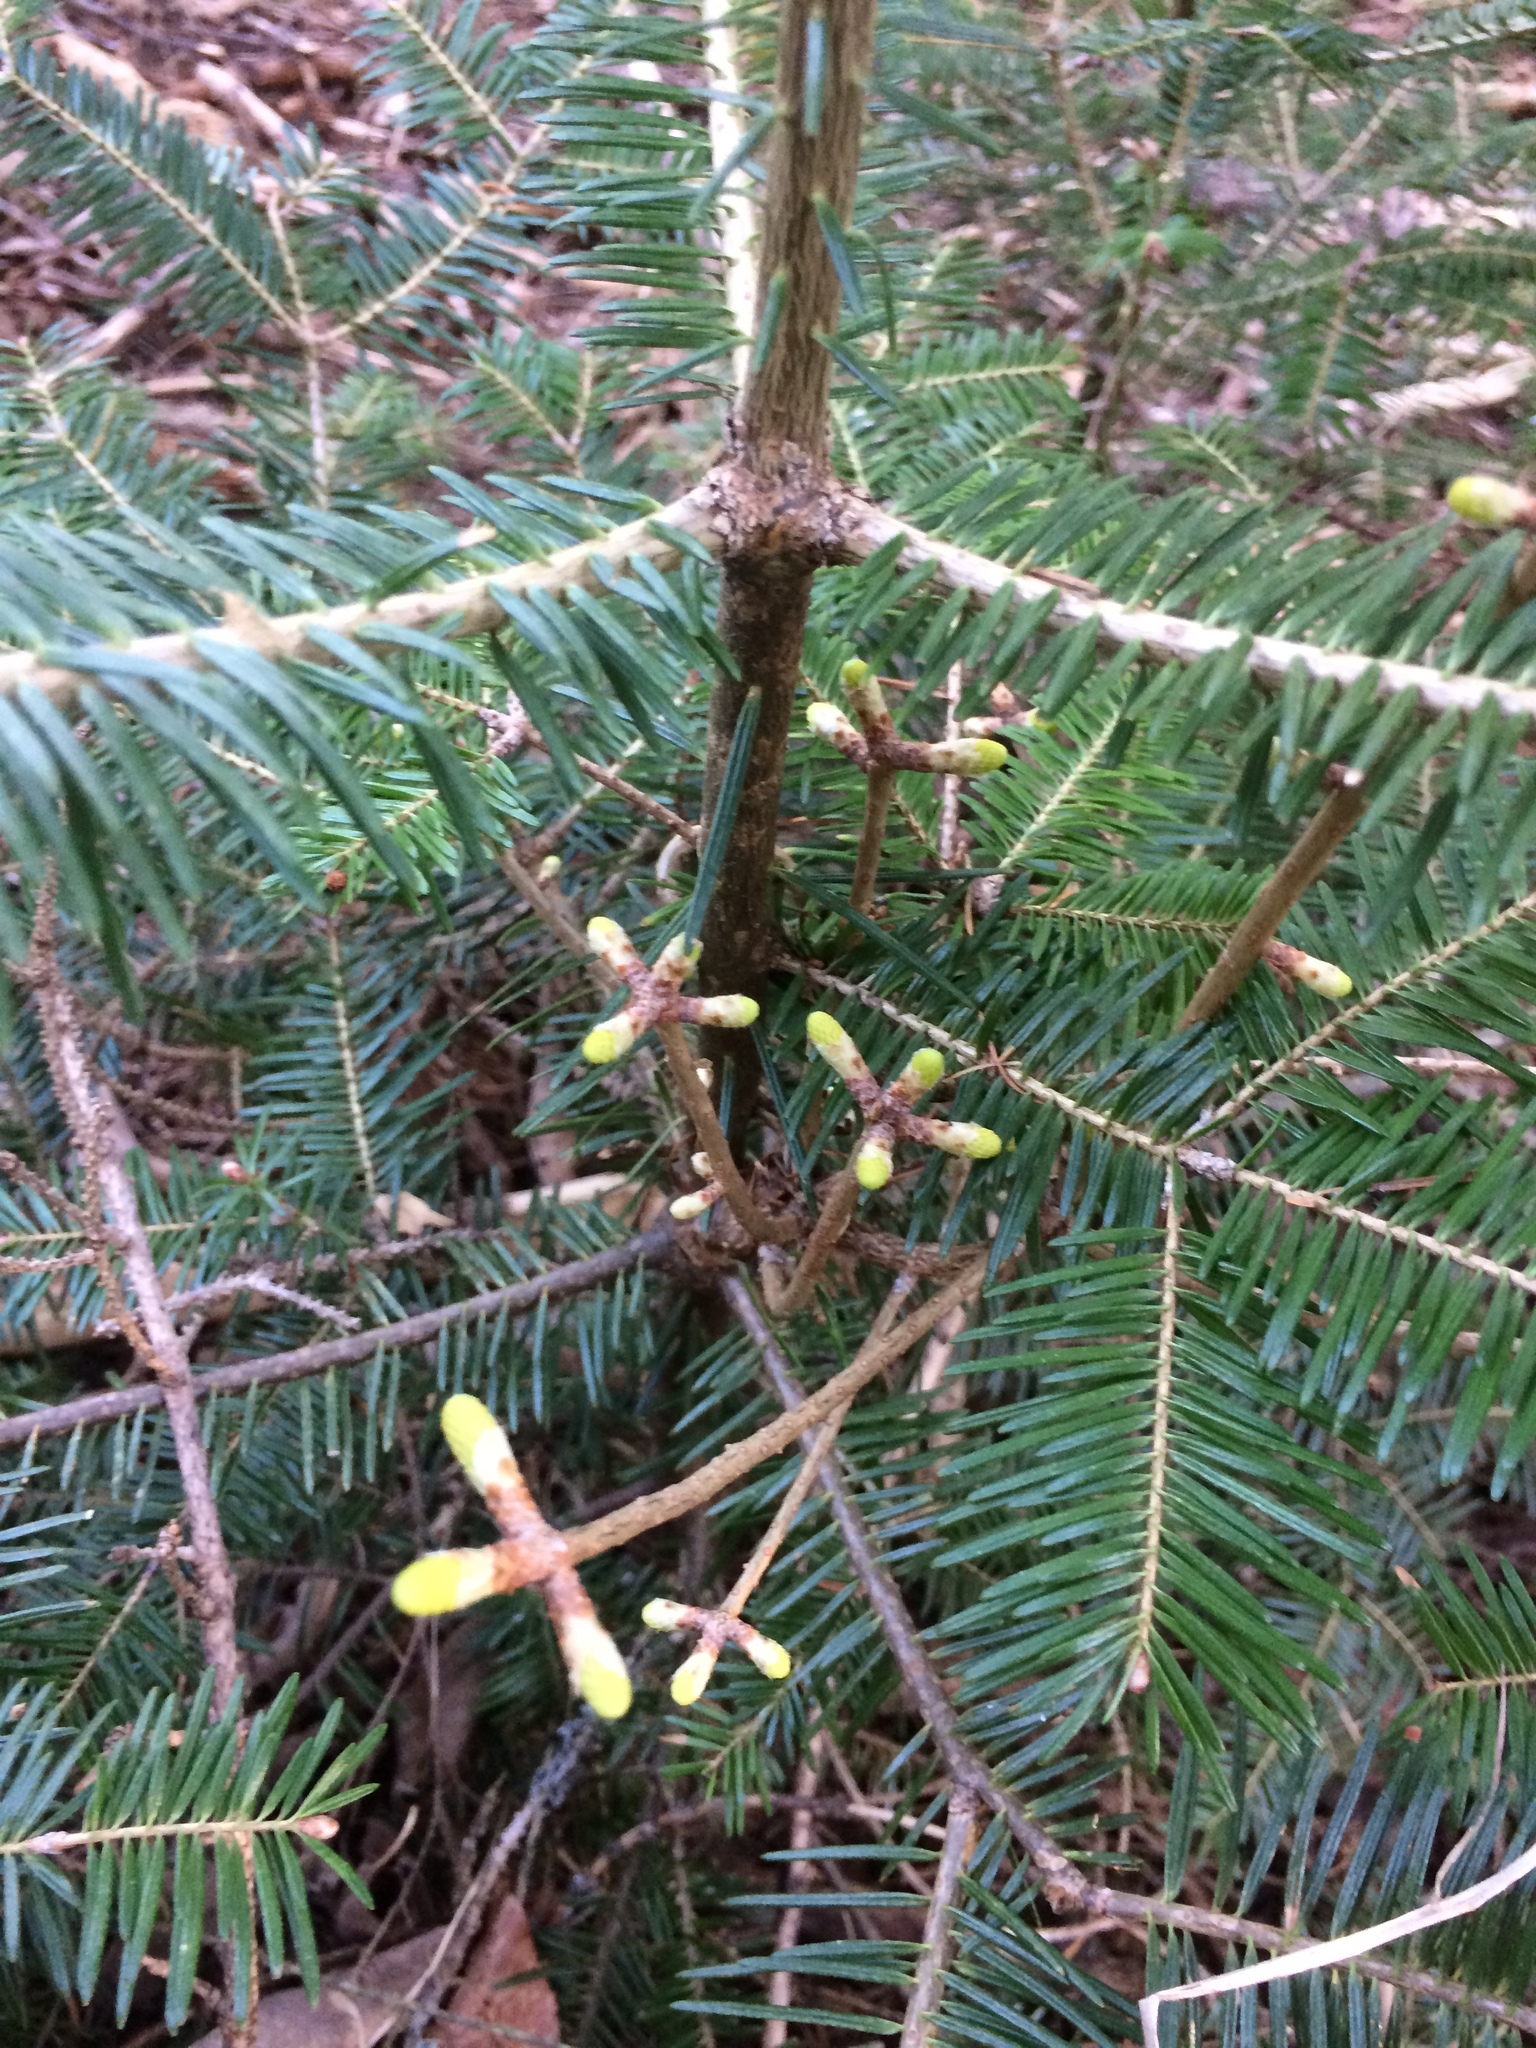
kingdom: Fungi
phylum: Basidiomycota
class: Pucciniomycetes
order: Pucciniales
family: Pucciniastraceae
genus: Melampsorella
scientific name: Melampsorella elatina
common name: Fir broom rust
